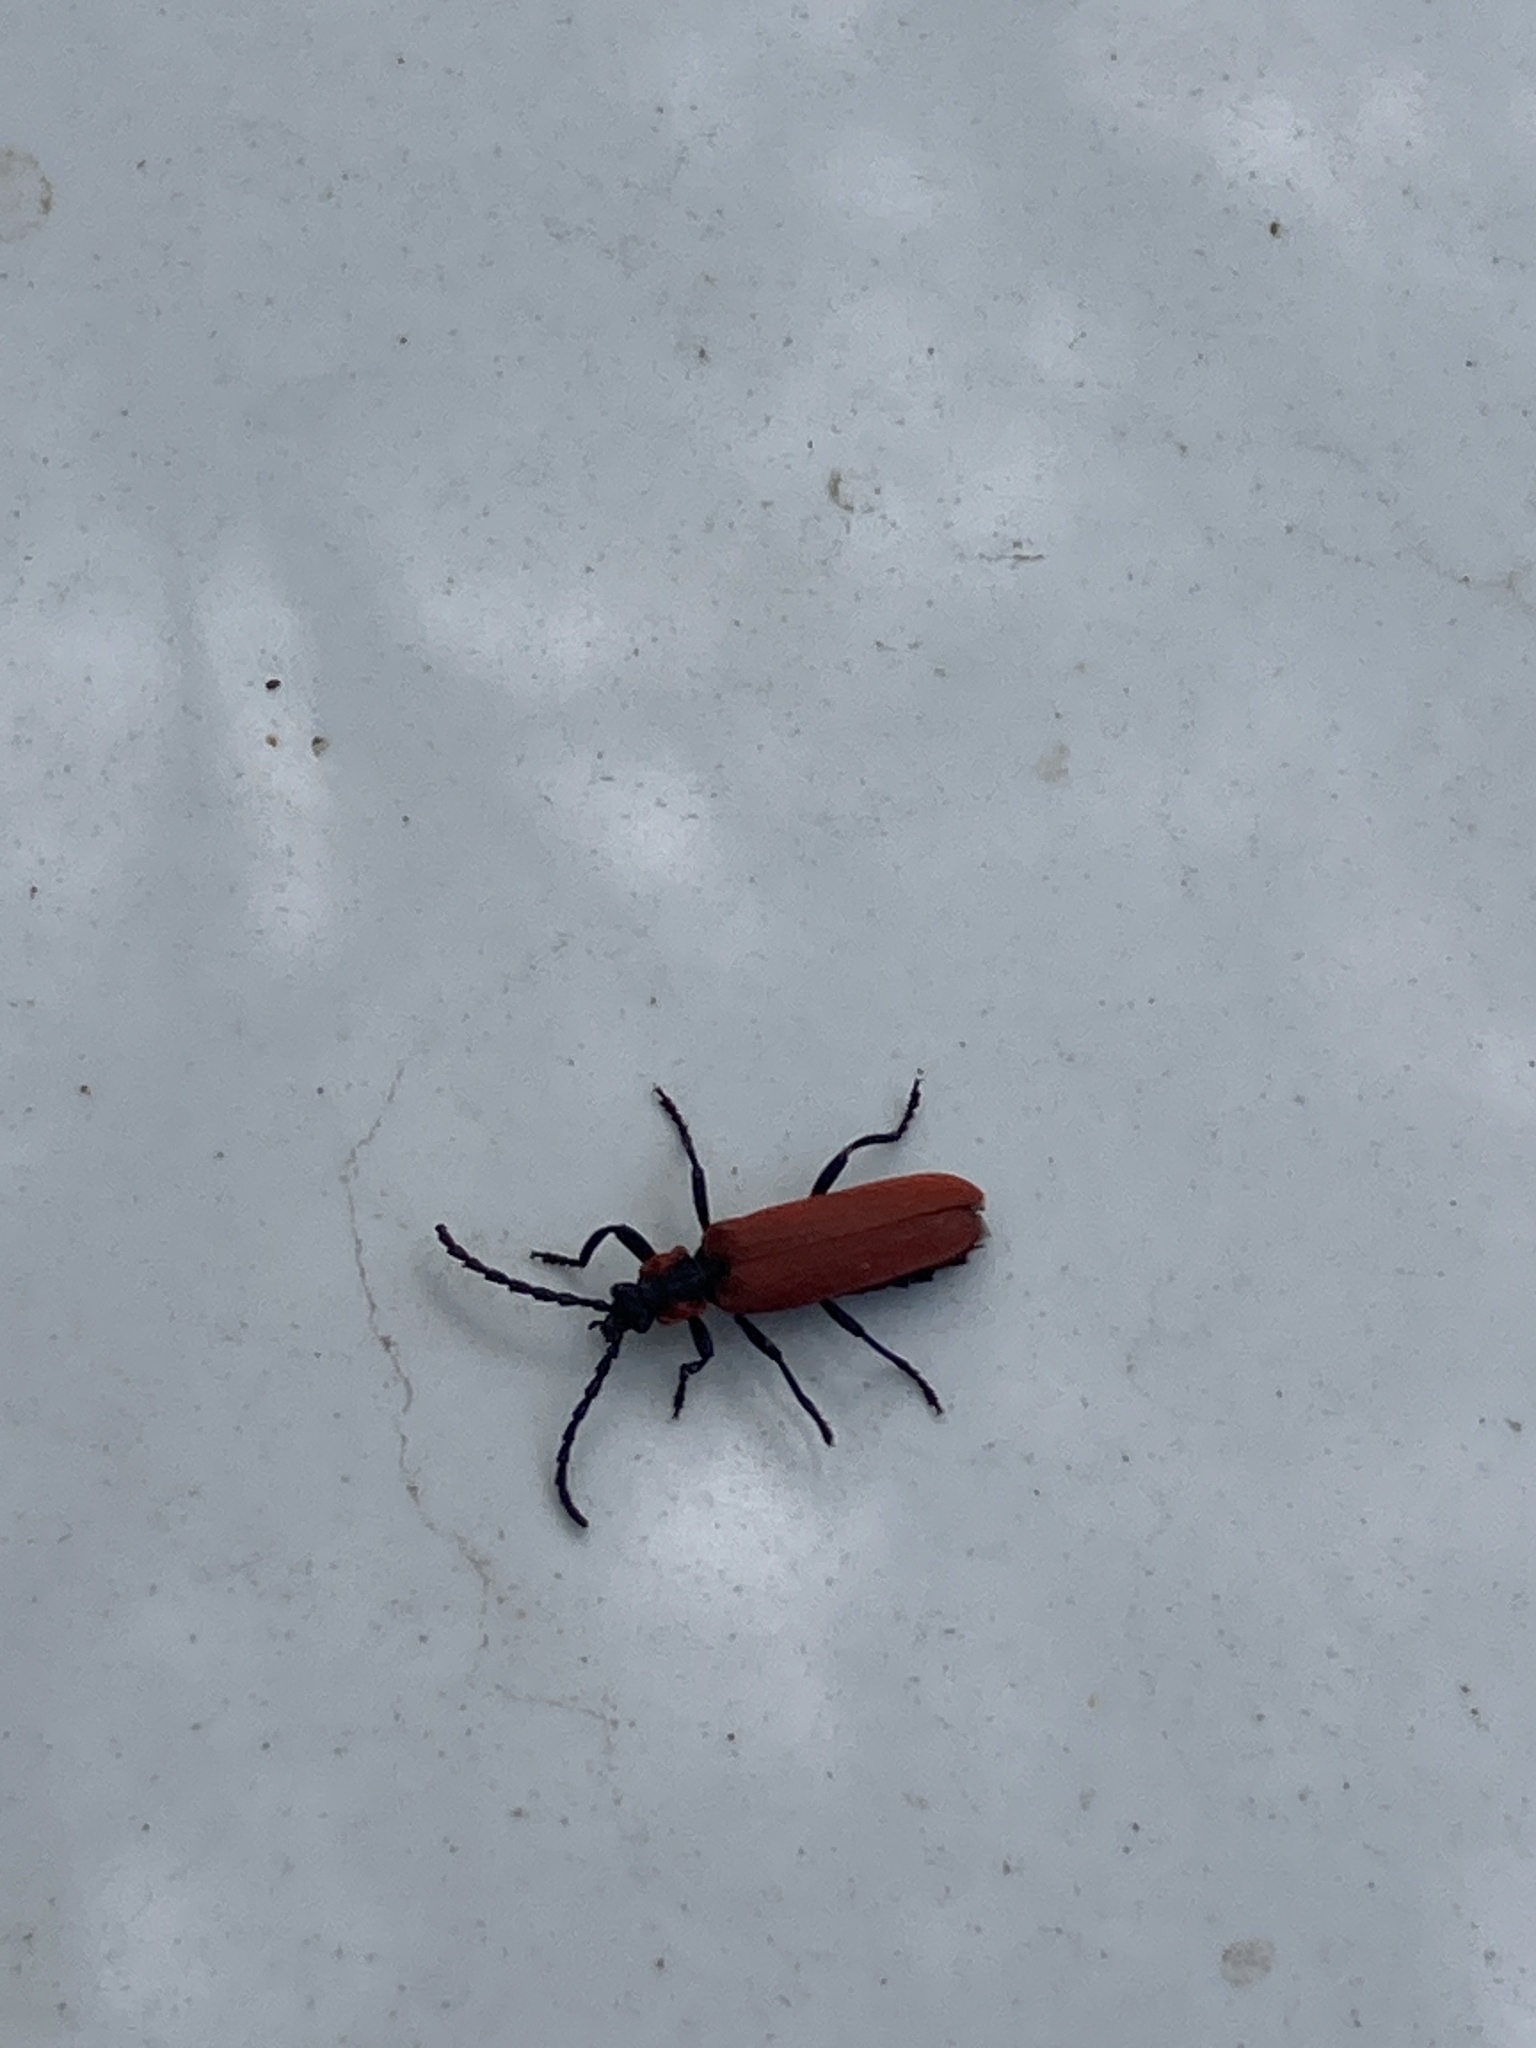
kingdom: Animalia
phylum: Arthropoda
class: Insecta
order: Coleoptera
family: Lycidae
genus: Lygistopterus
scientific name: Lygistopterus sanguineus
